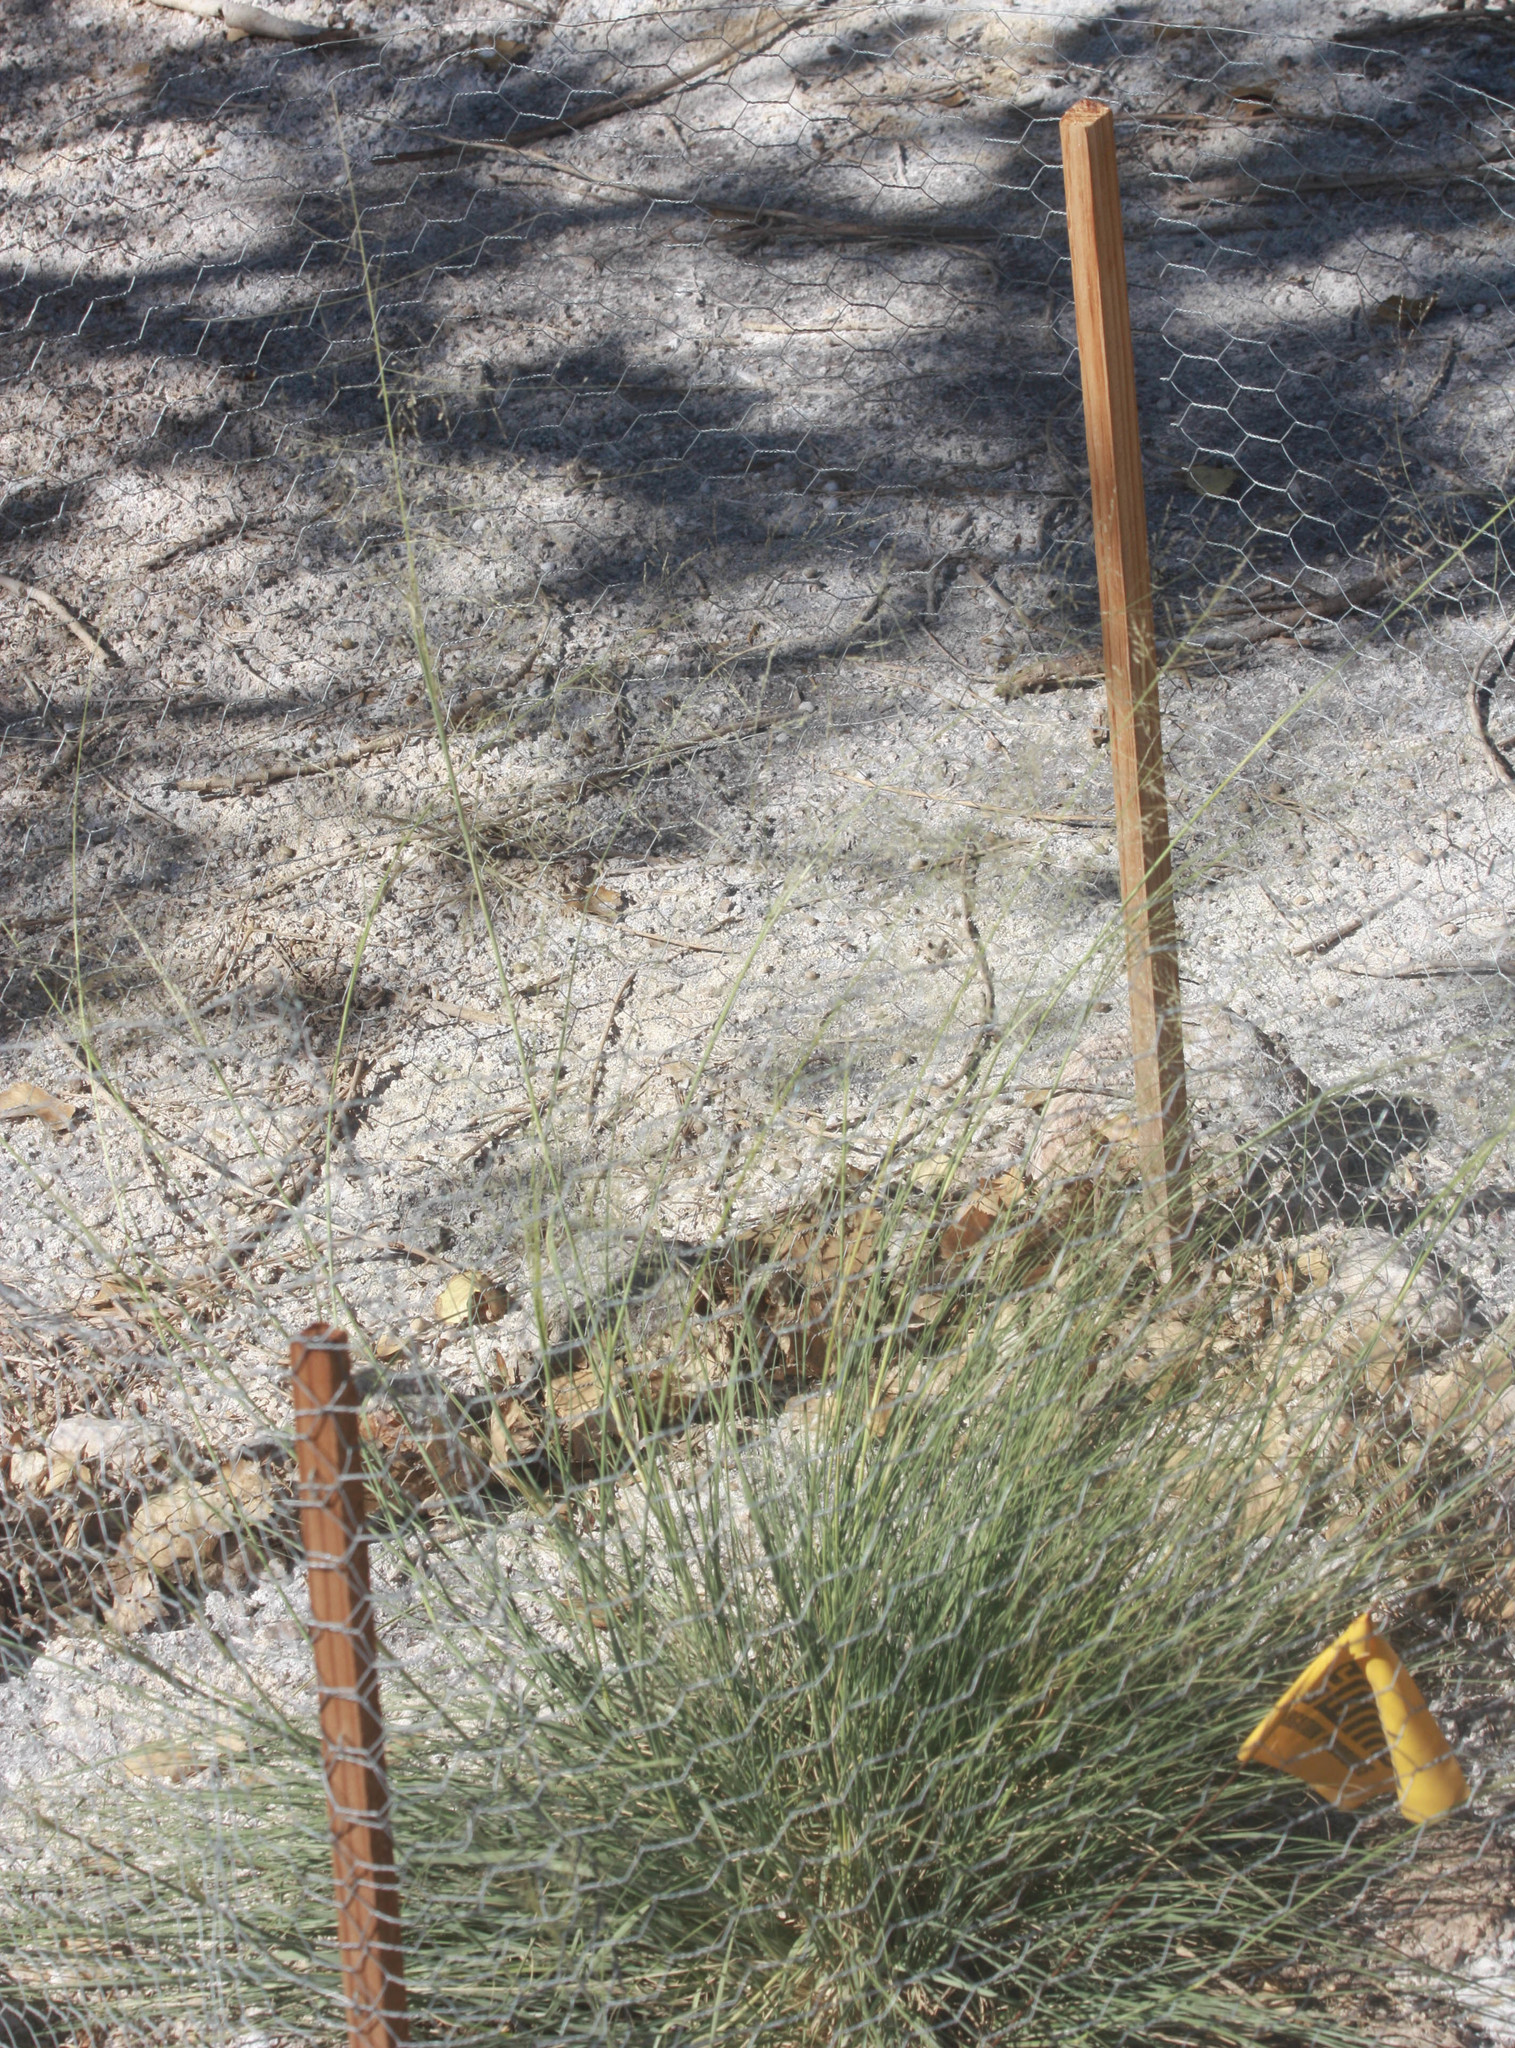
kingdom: Plantae
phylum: Tracheophyta
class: Liliopsida
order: Poales
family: Poaceae
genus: Sporobolus
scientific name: Sporobolus airoides
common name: Alkali sacaton
